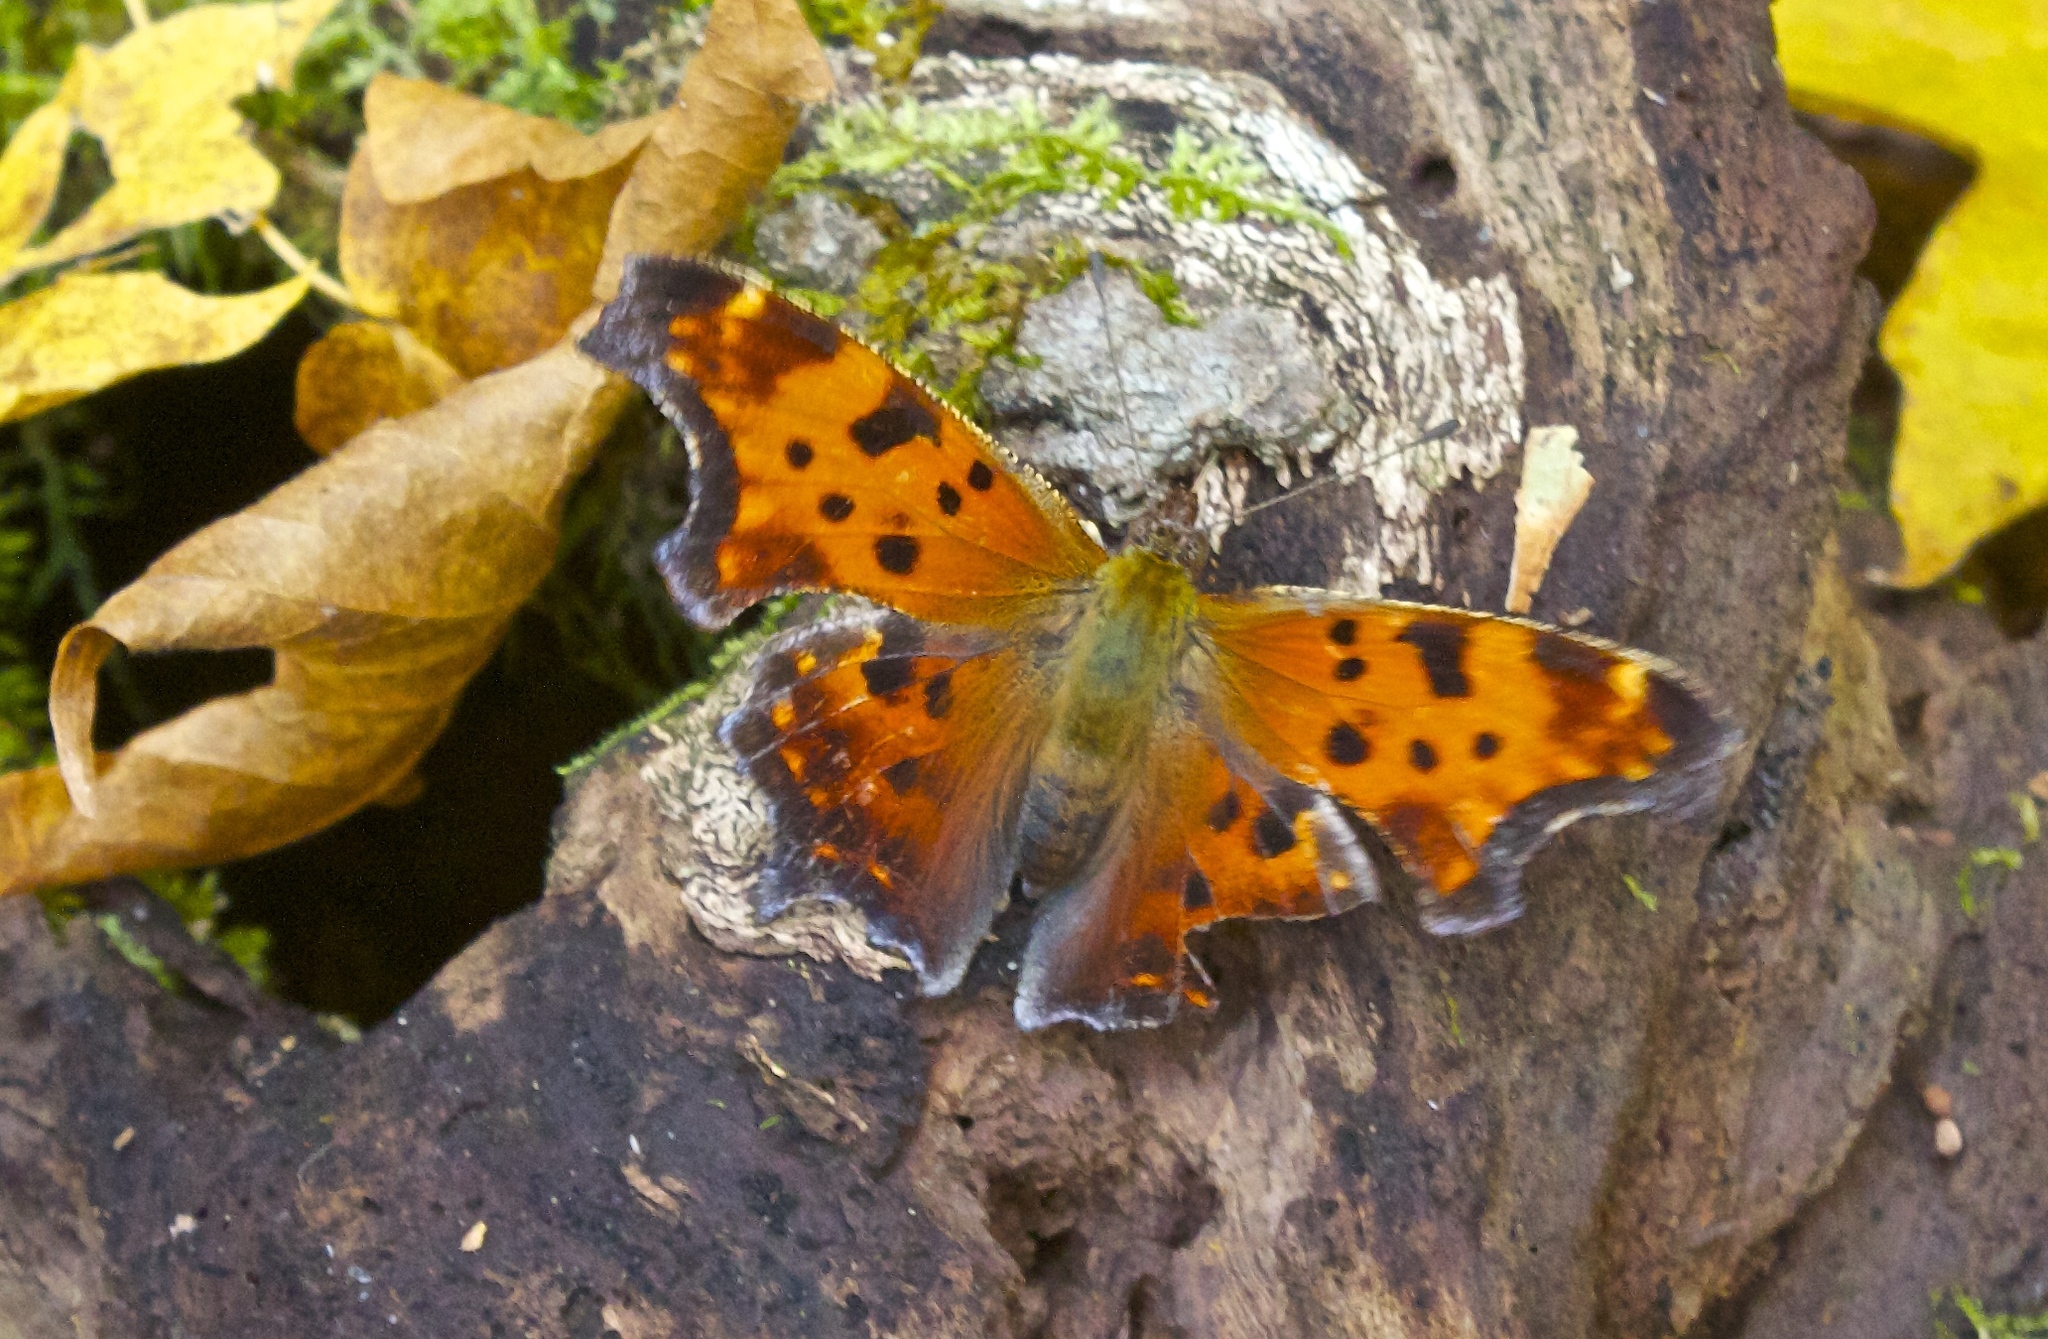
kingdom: Animalia
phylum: Arthropoda
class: Insecta
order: Lepidoptera
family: Nymphalidae
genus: Polygonia
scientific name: Polygonia comma
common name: Eastern comma
